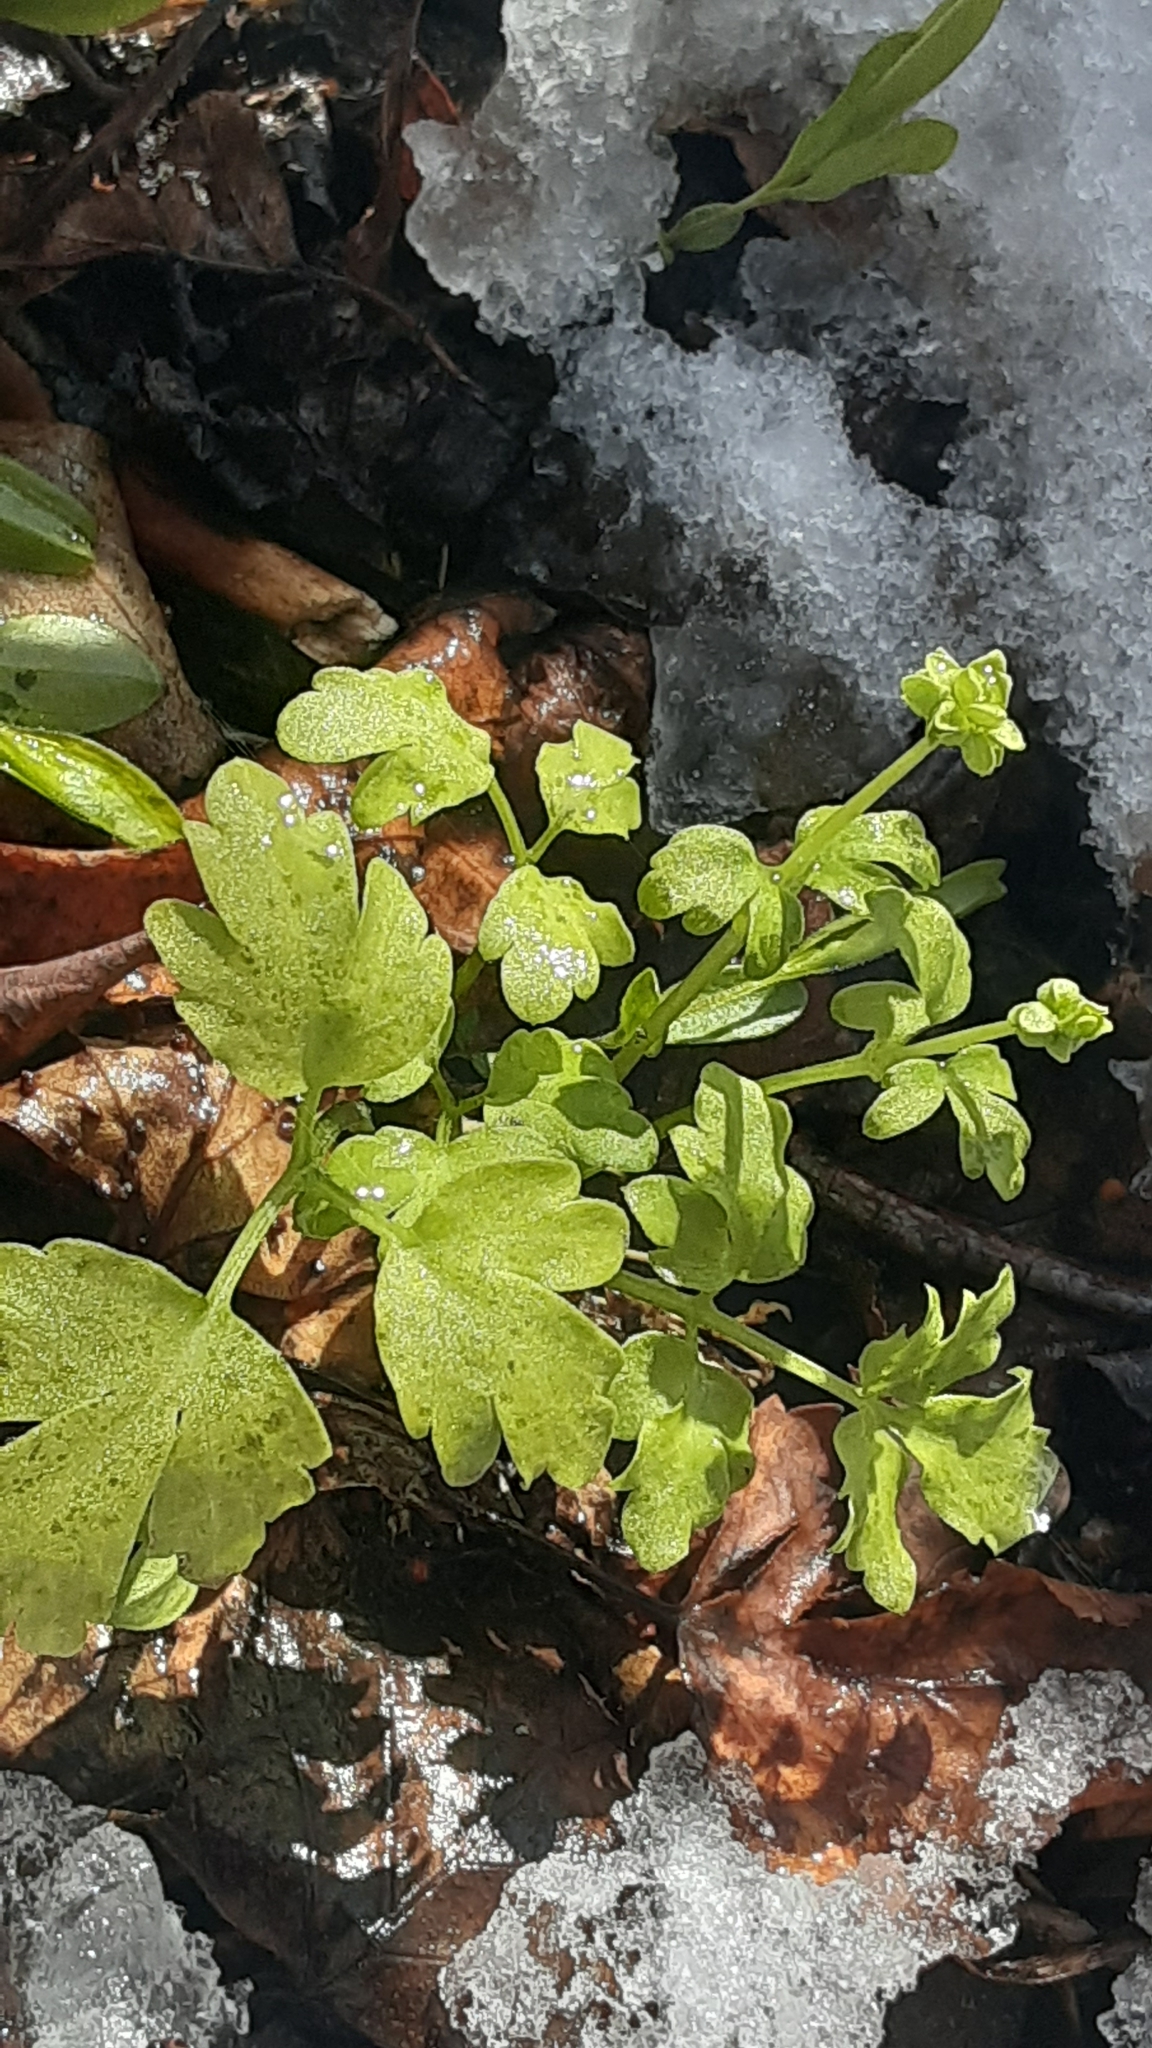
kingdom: Plantae
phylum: Tracheophyta
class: Magnoliopsida
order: Dipsacales
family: Viburnaceae
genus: Adoxa
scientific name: Adoxa moschatellina
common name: Moschatel
